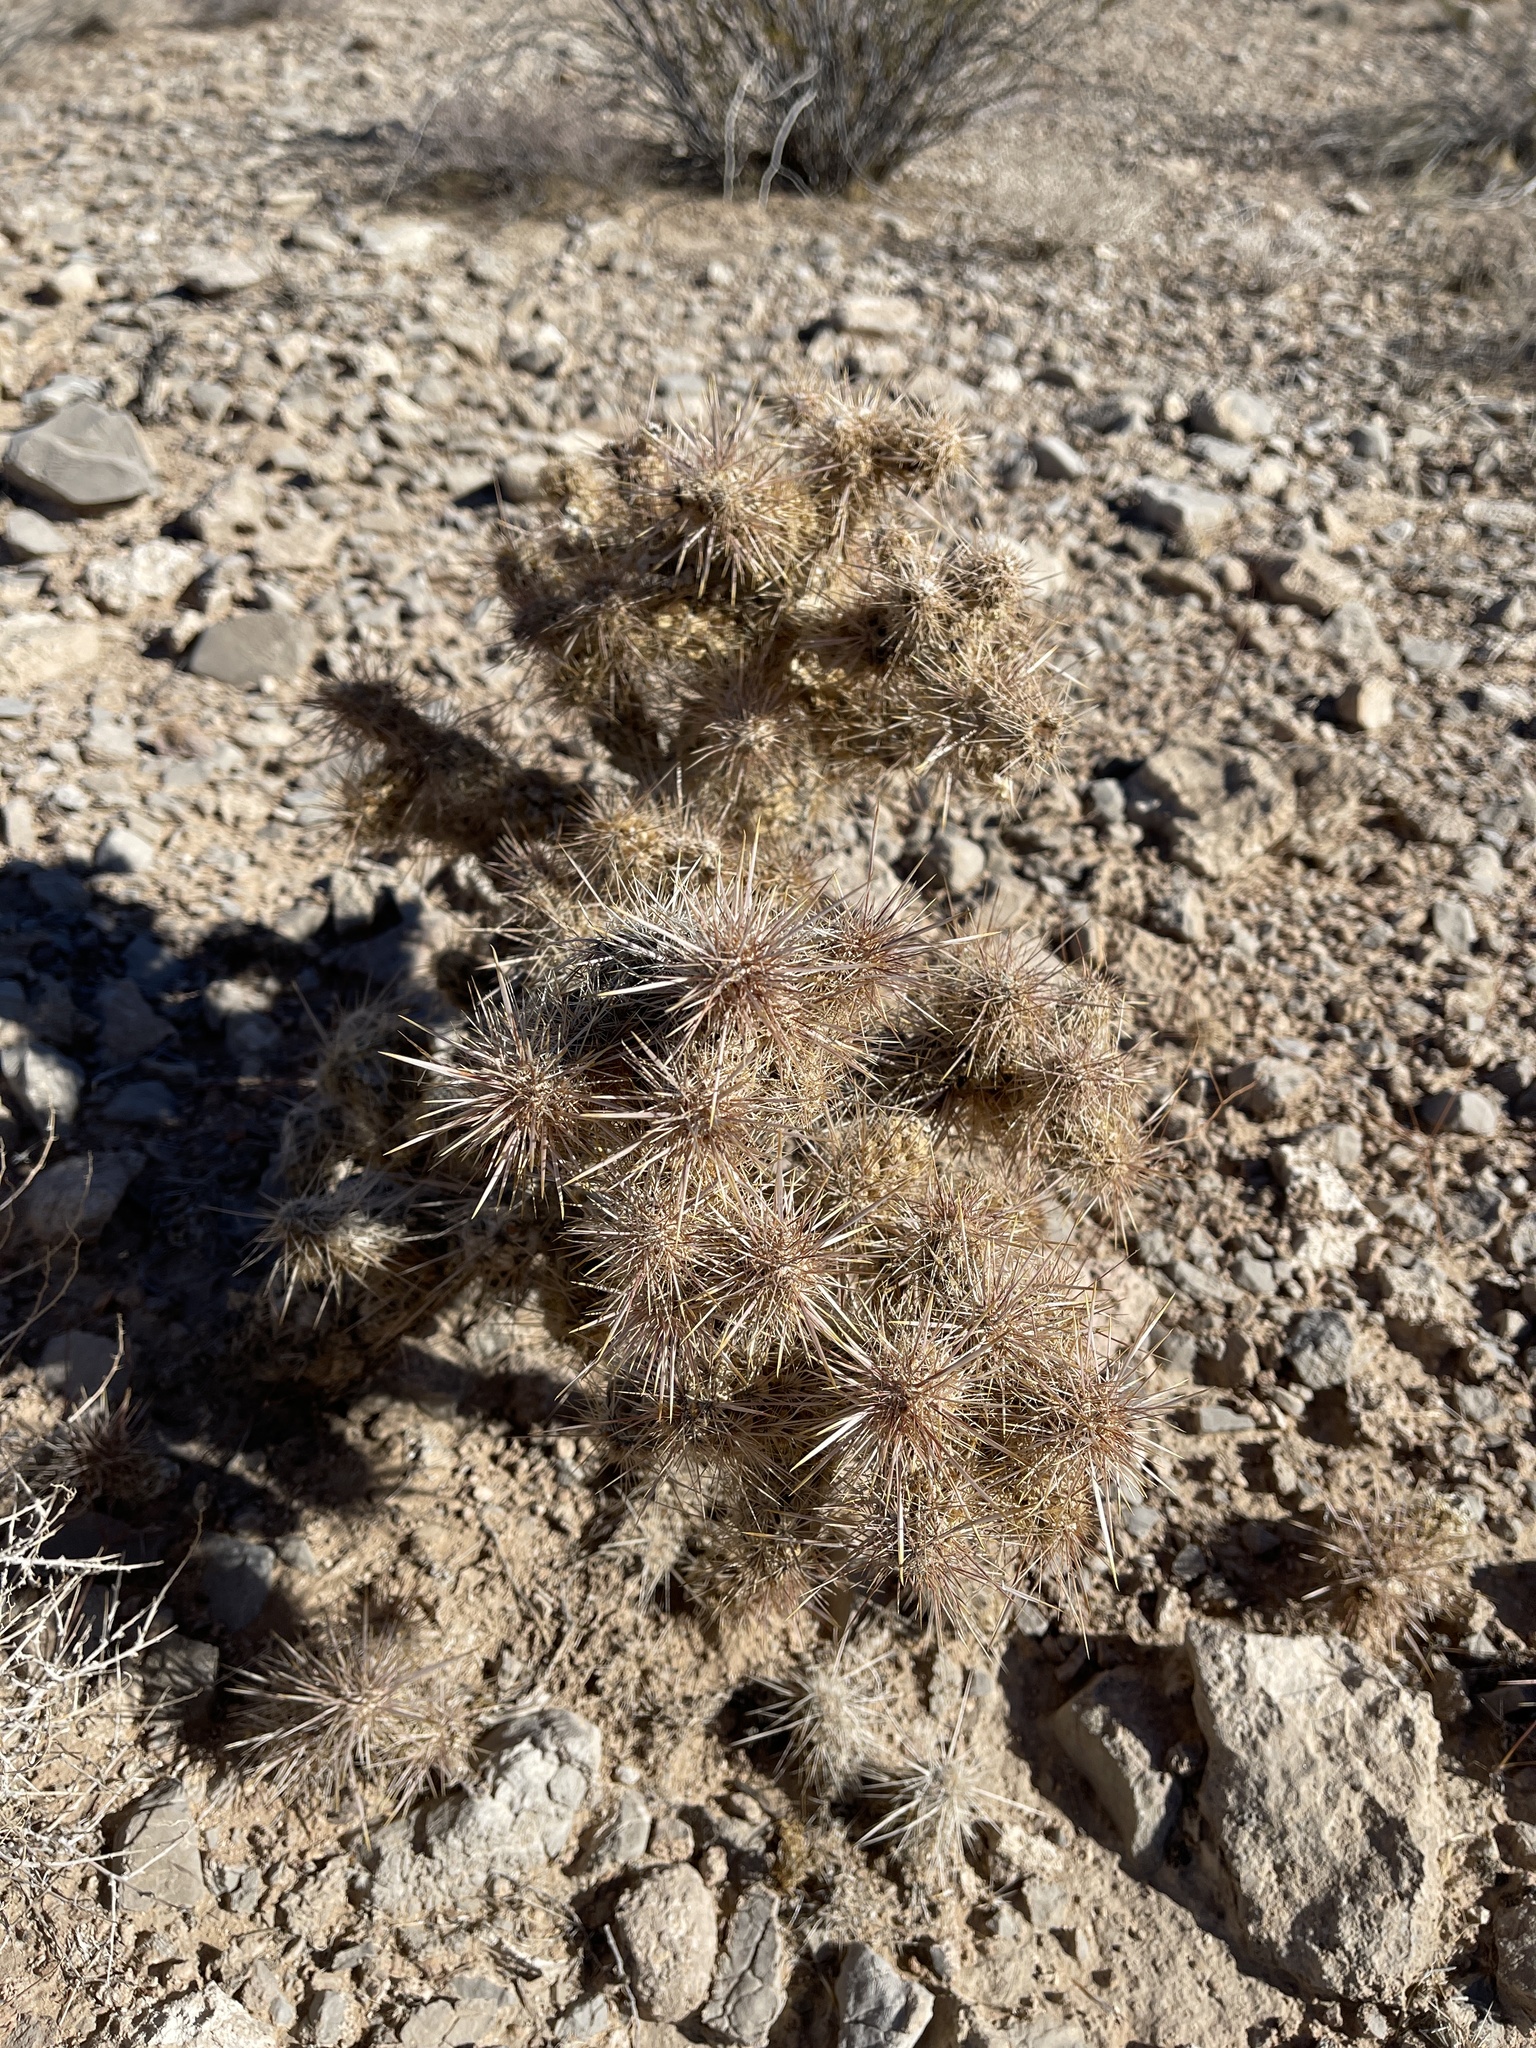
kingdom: Plantae
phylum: Tracheophyta
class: Magnoliopsida
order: Caryophyllales
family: Cactaceae
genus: Cylindropuntia
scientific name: Cylindropuntia echinocarpa
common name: Ground cholla
